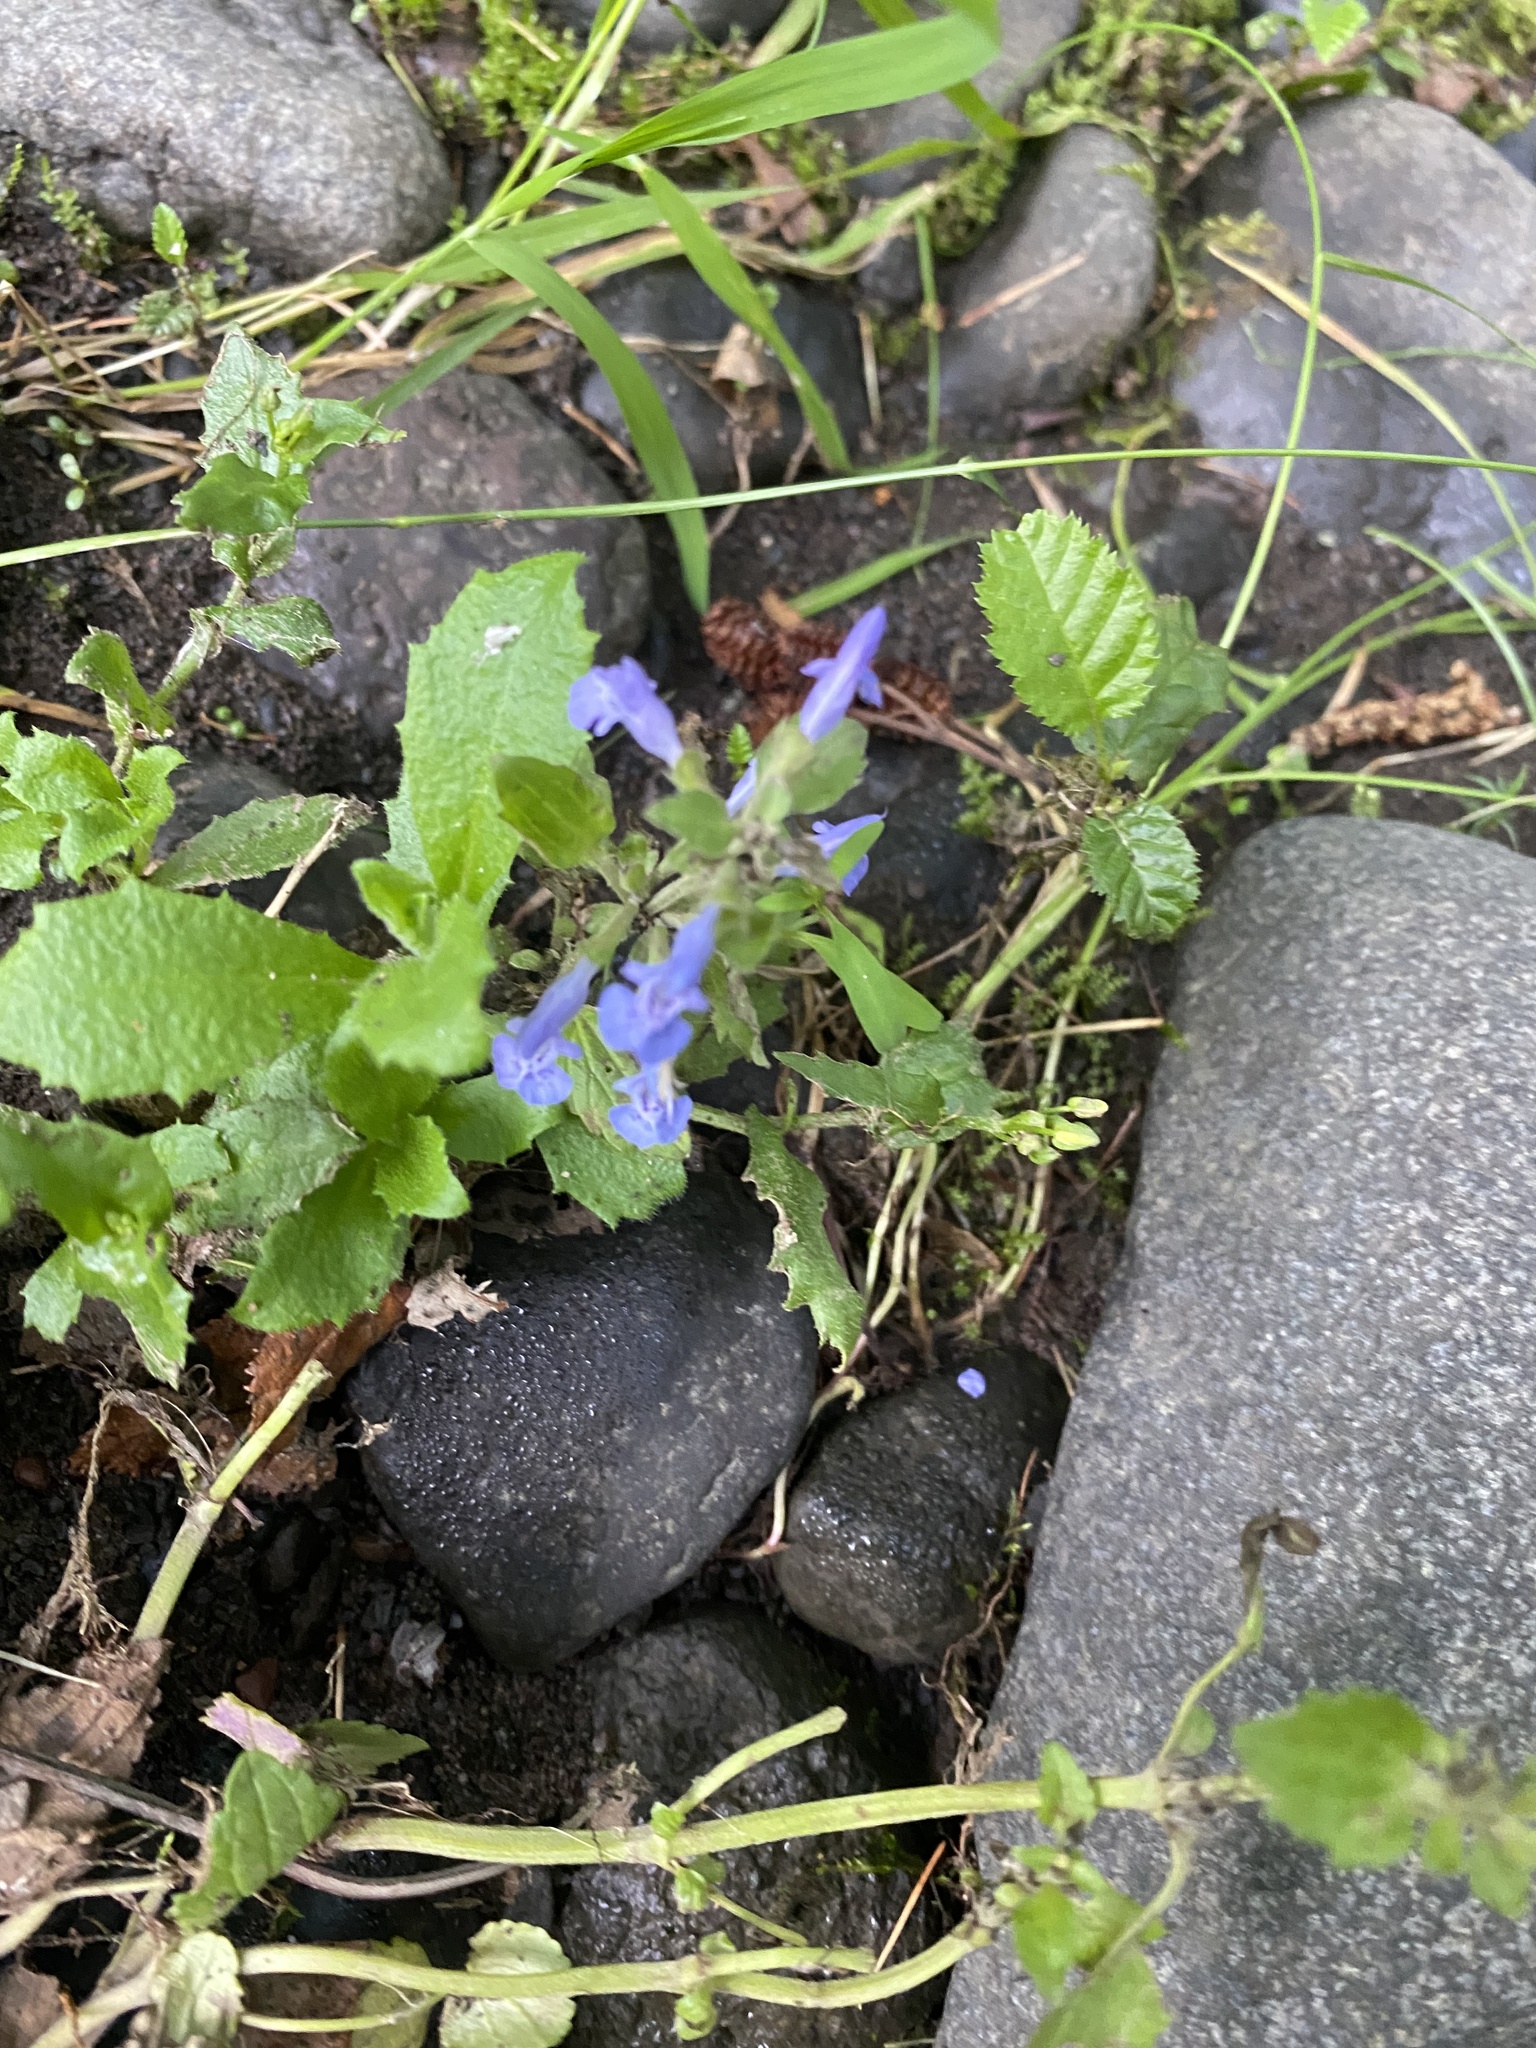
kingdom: Plantae
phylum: Tracheophyta
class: Magnoliopsida
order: Lamiales
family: Lamiaceae
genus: Dracocephalum
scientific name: Dracocephalum nutans
